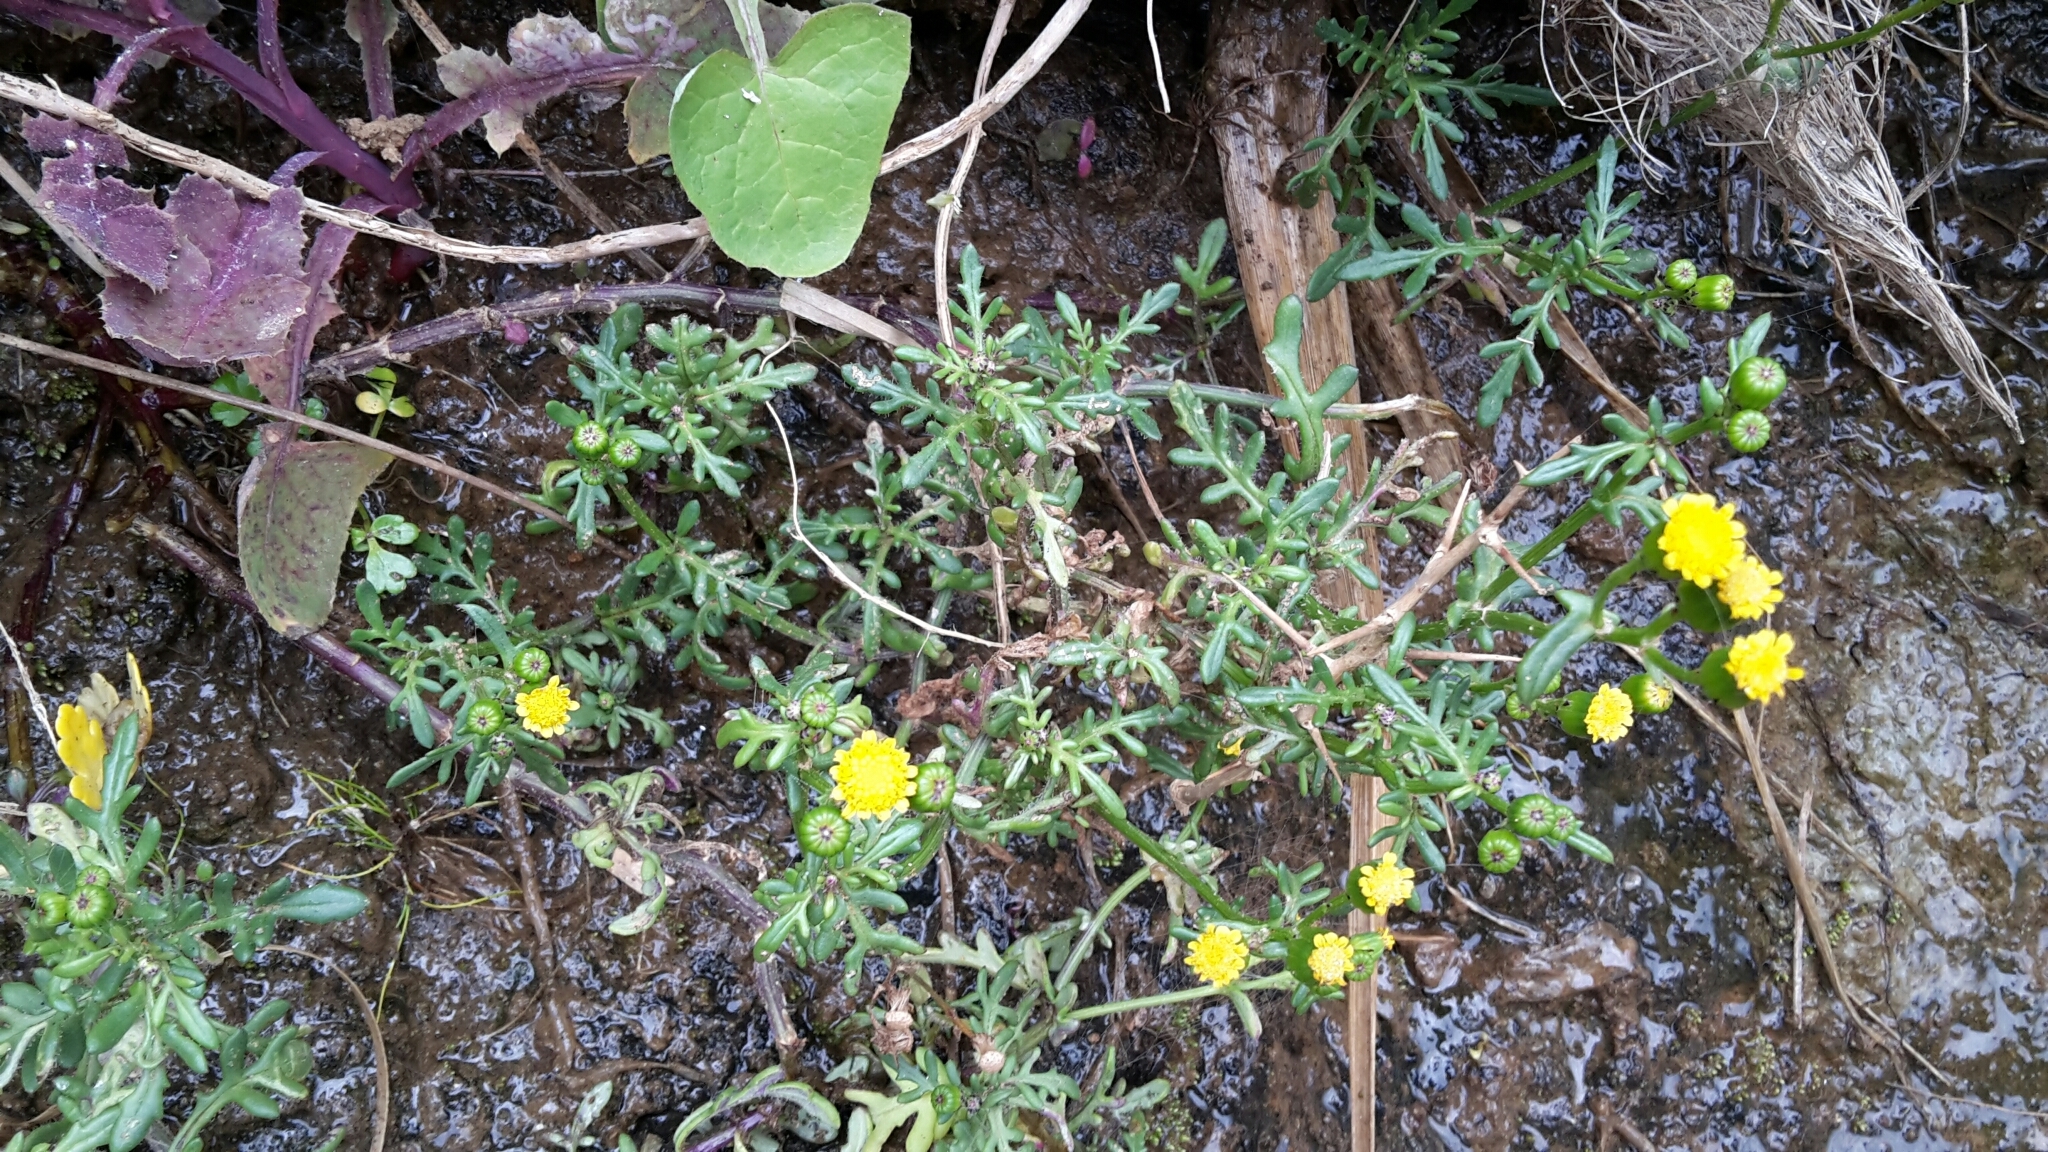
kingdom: Plantae
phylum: Tracheophyta
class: Magnoliopsida
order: Asterales
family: Asteraceae
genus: Senecio
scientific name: Senecio lautus
